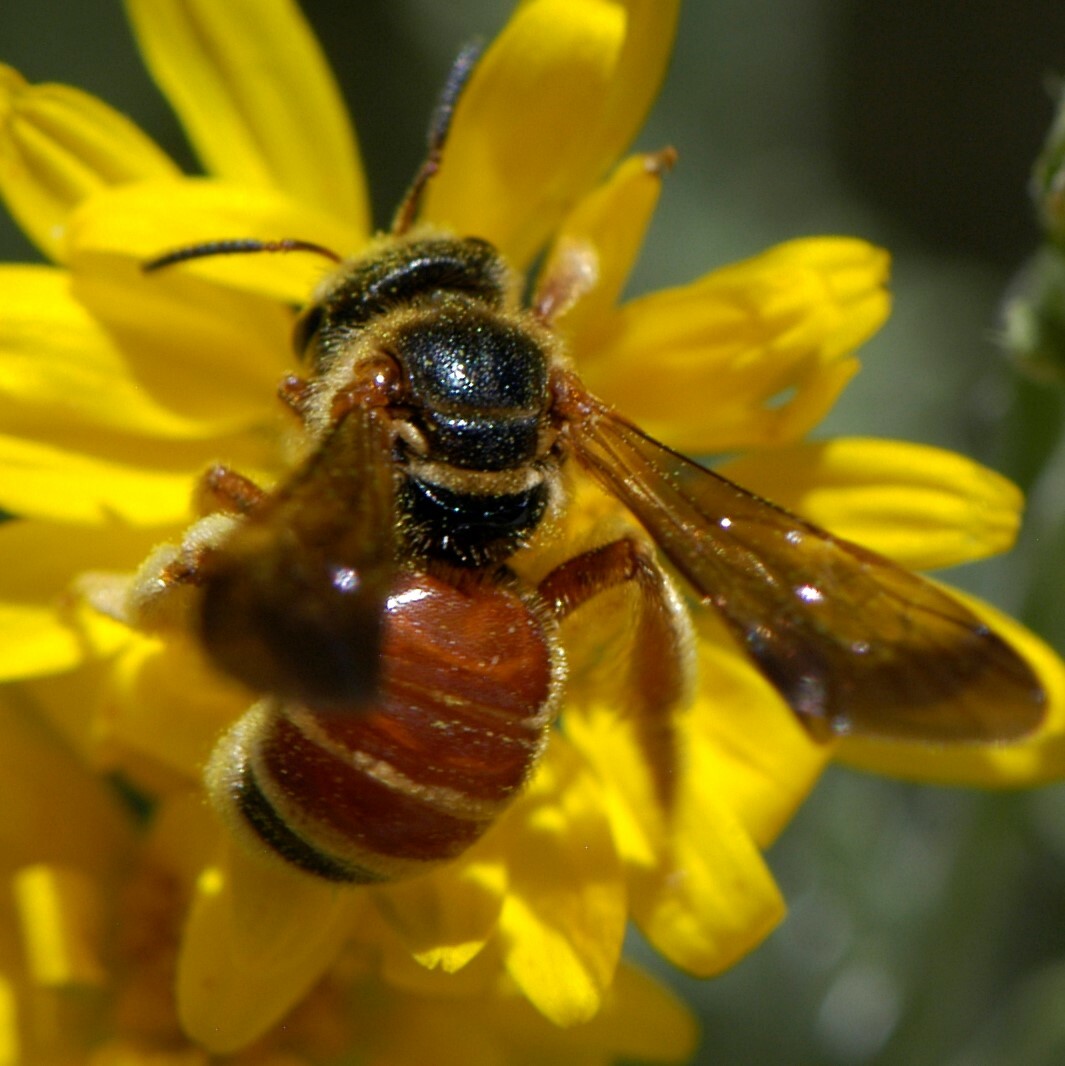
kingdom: Animalia
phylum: Arthropoda
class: Insecta
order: Hymenoptera
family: Halictidae
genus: Dieunomia
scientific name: Dieunomia nevadensis
